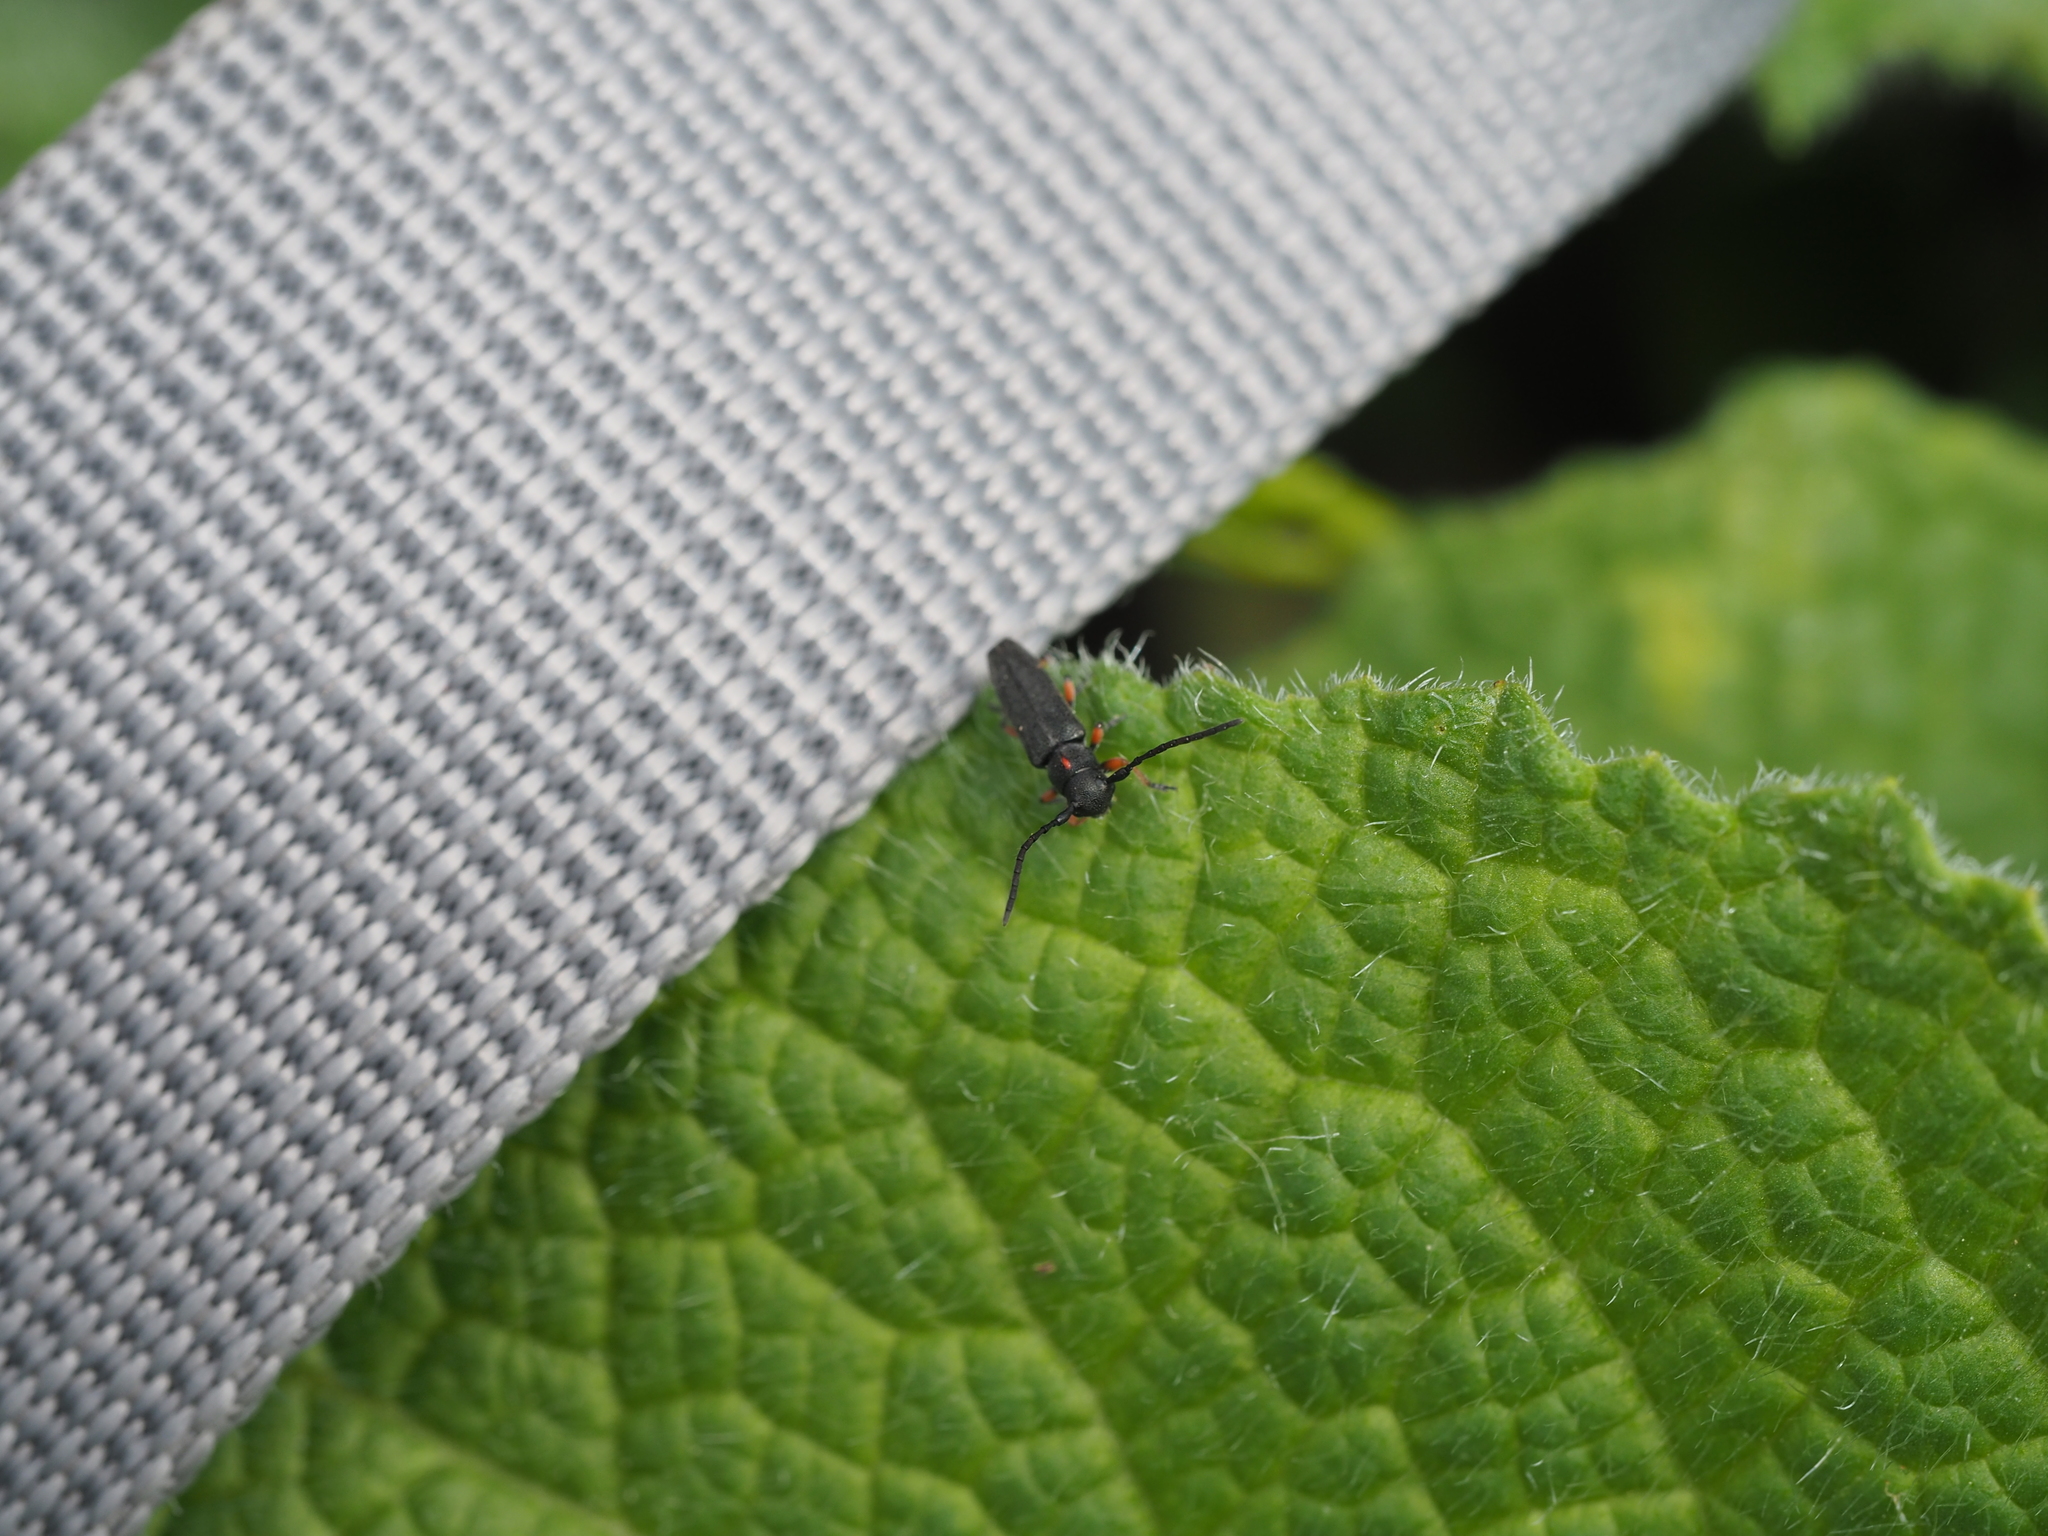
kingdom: Animalia
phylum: Arthropoda
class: Insecta
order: Coleoptera
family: Cerambycidae
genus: Phytoecia
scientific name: Phytoecia pustulata
